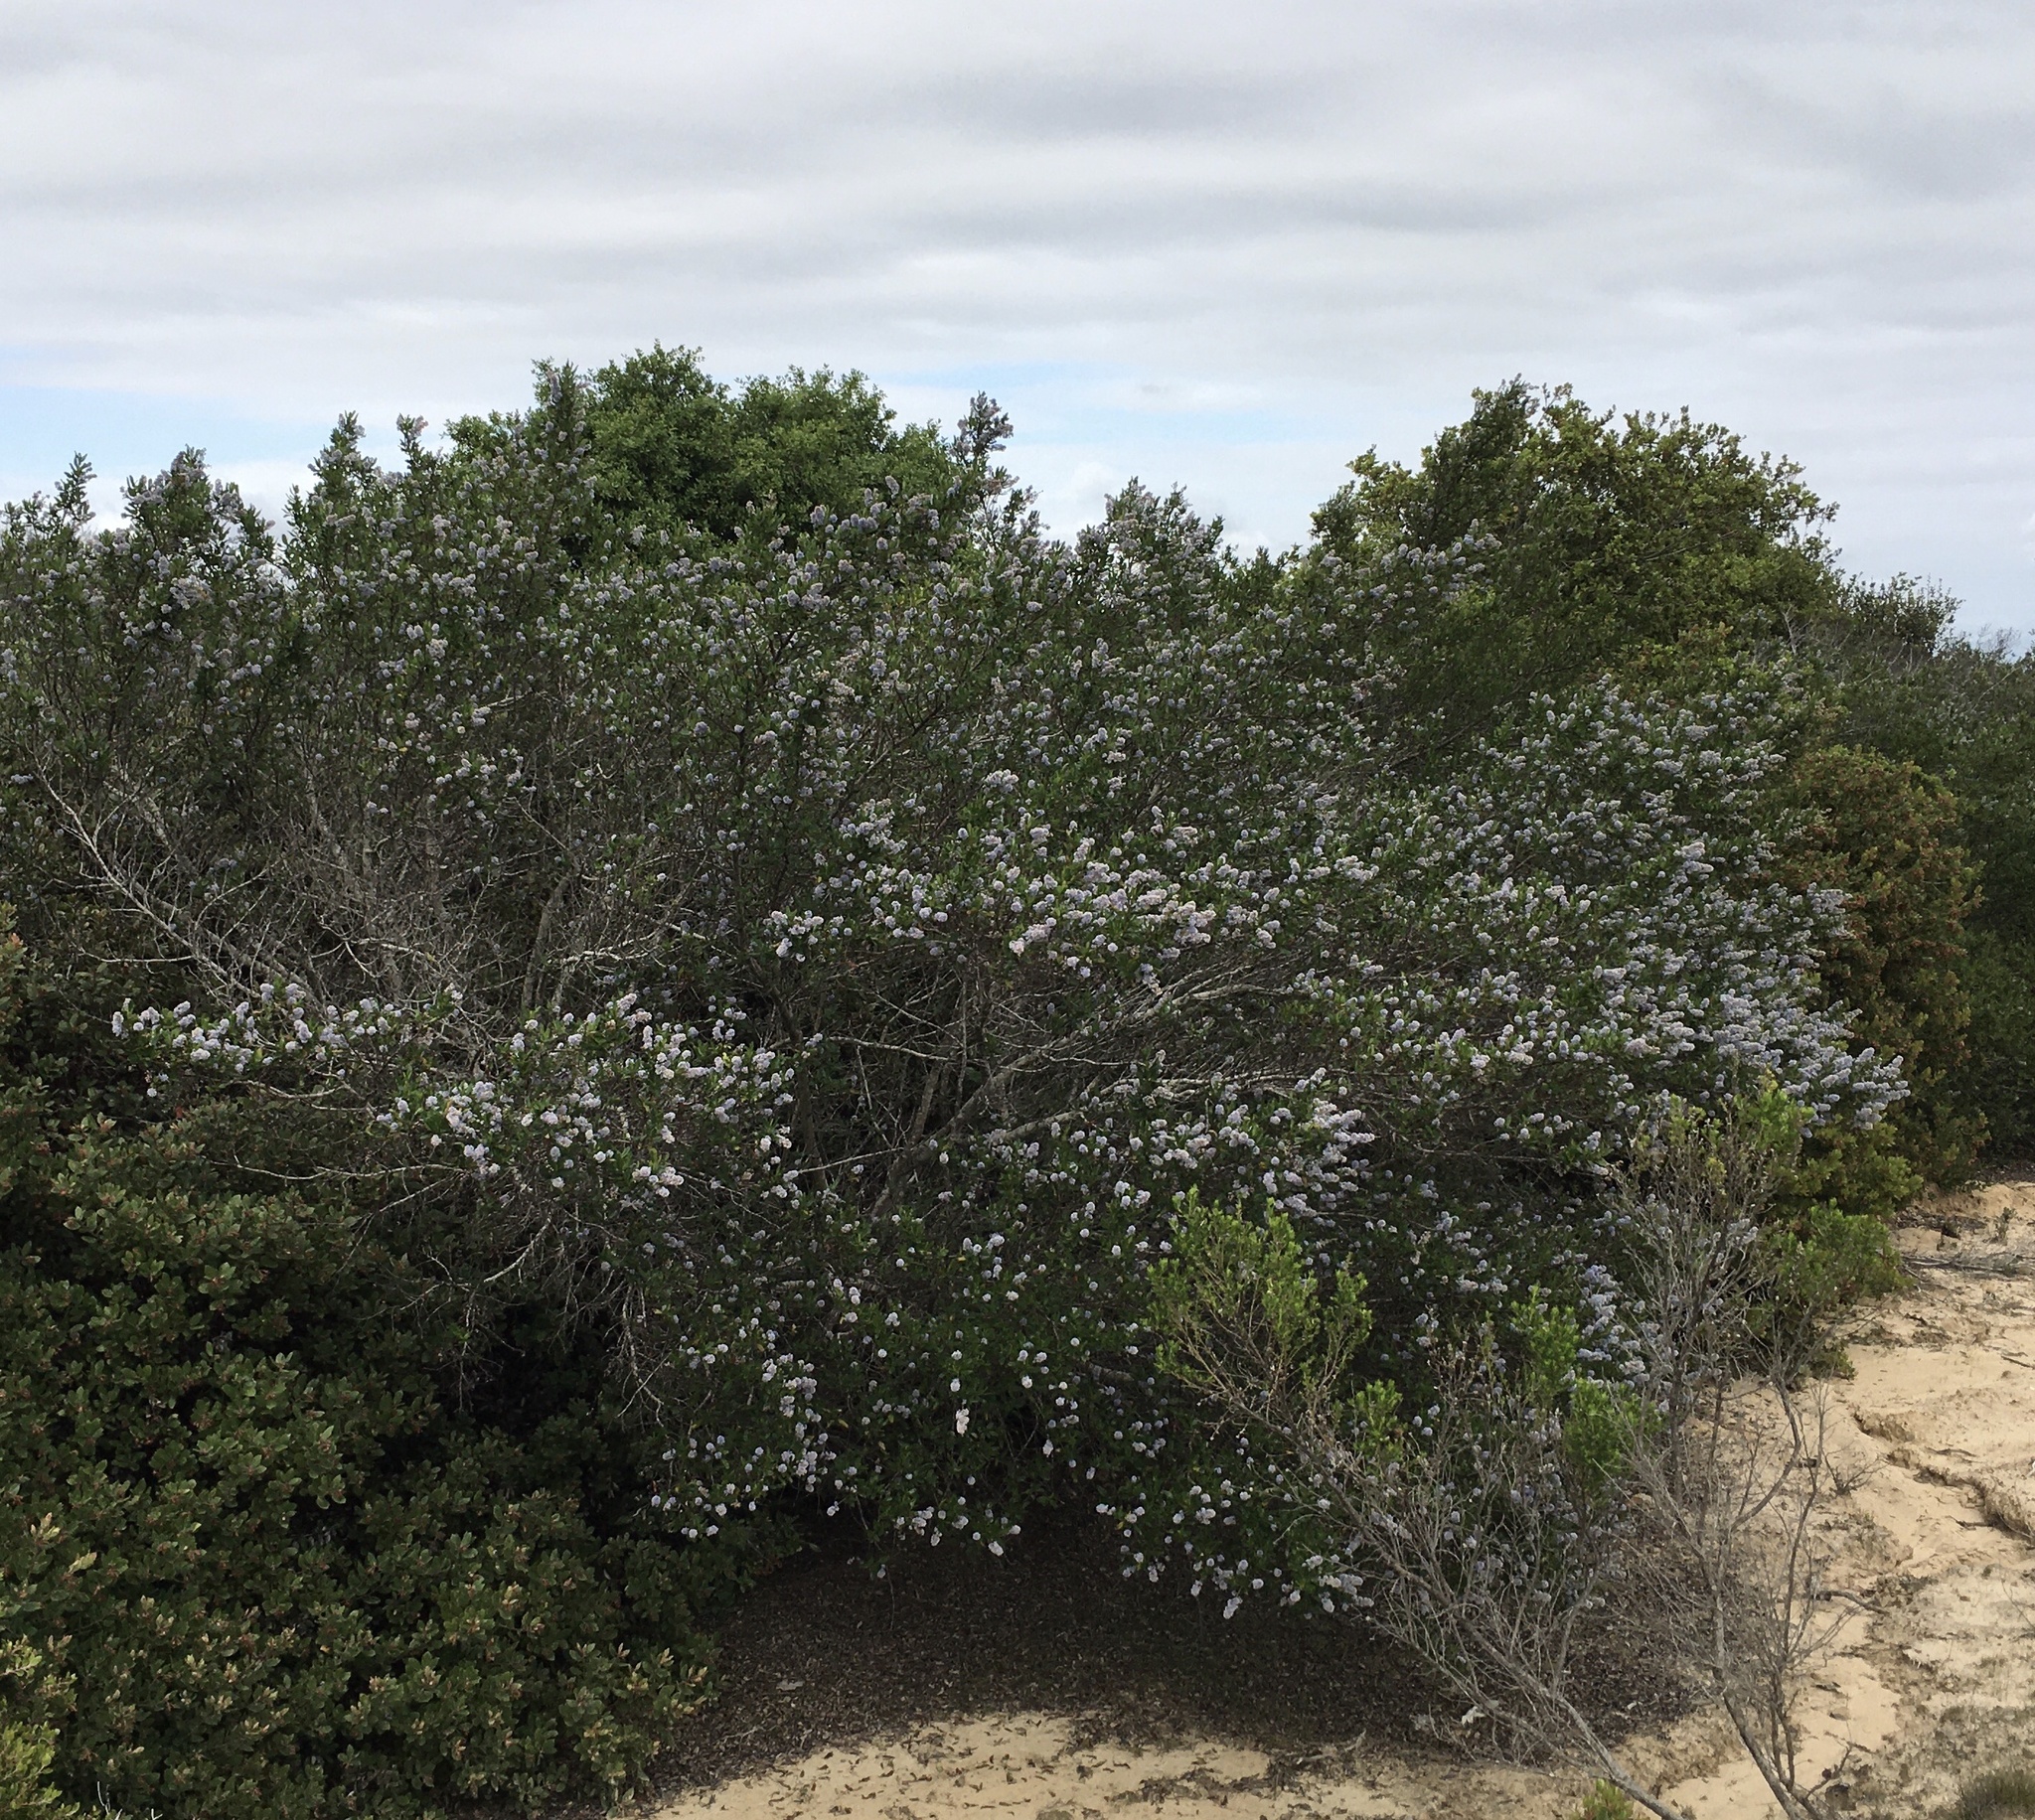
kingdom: Plantae
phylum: Tracheophyta
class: Magnoliopsida
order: Rosales
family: Rhamnaceae
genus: Ceanothus
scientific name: Ceanothus griseus
